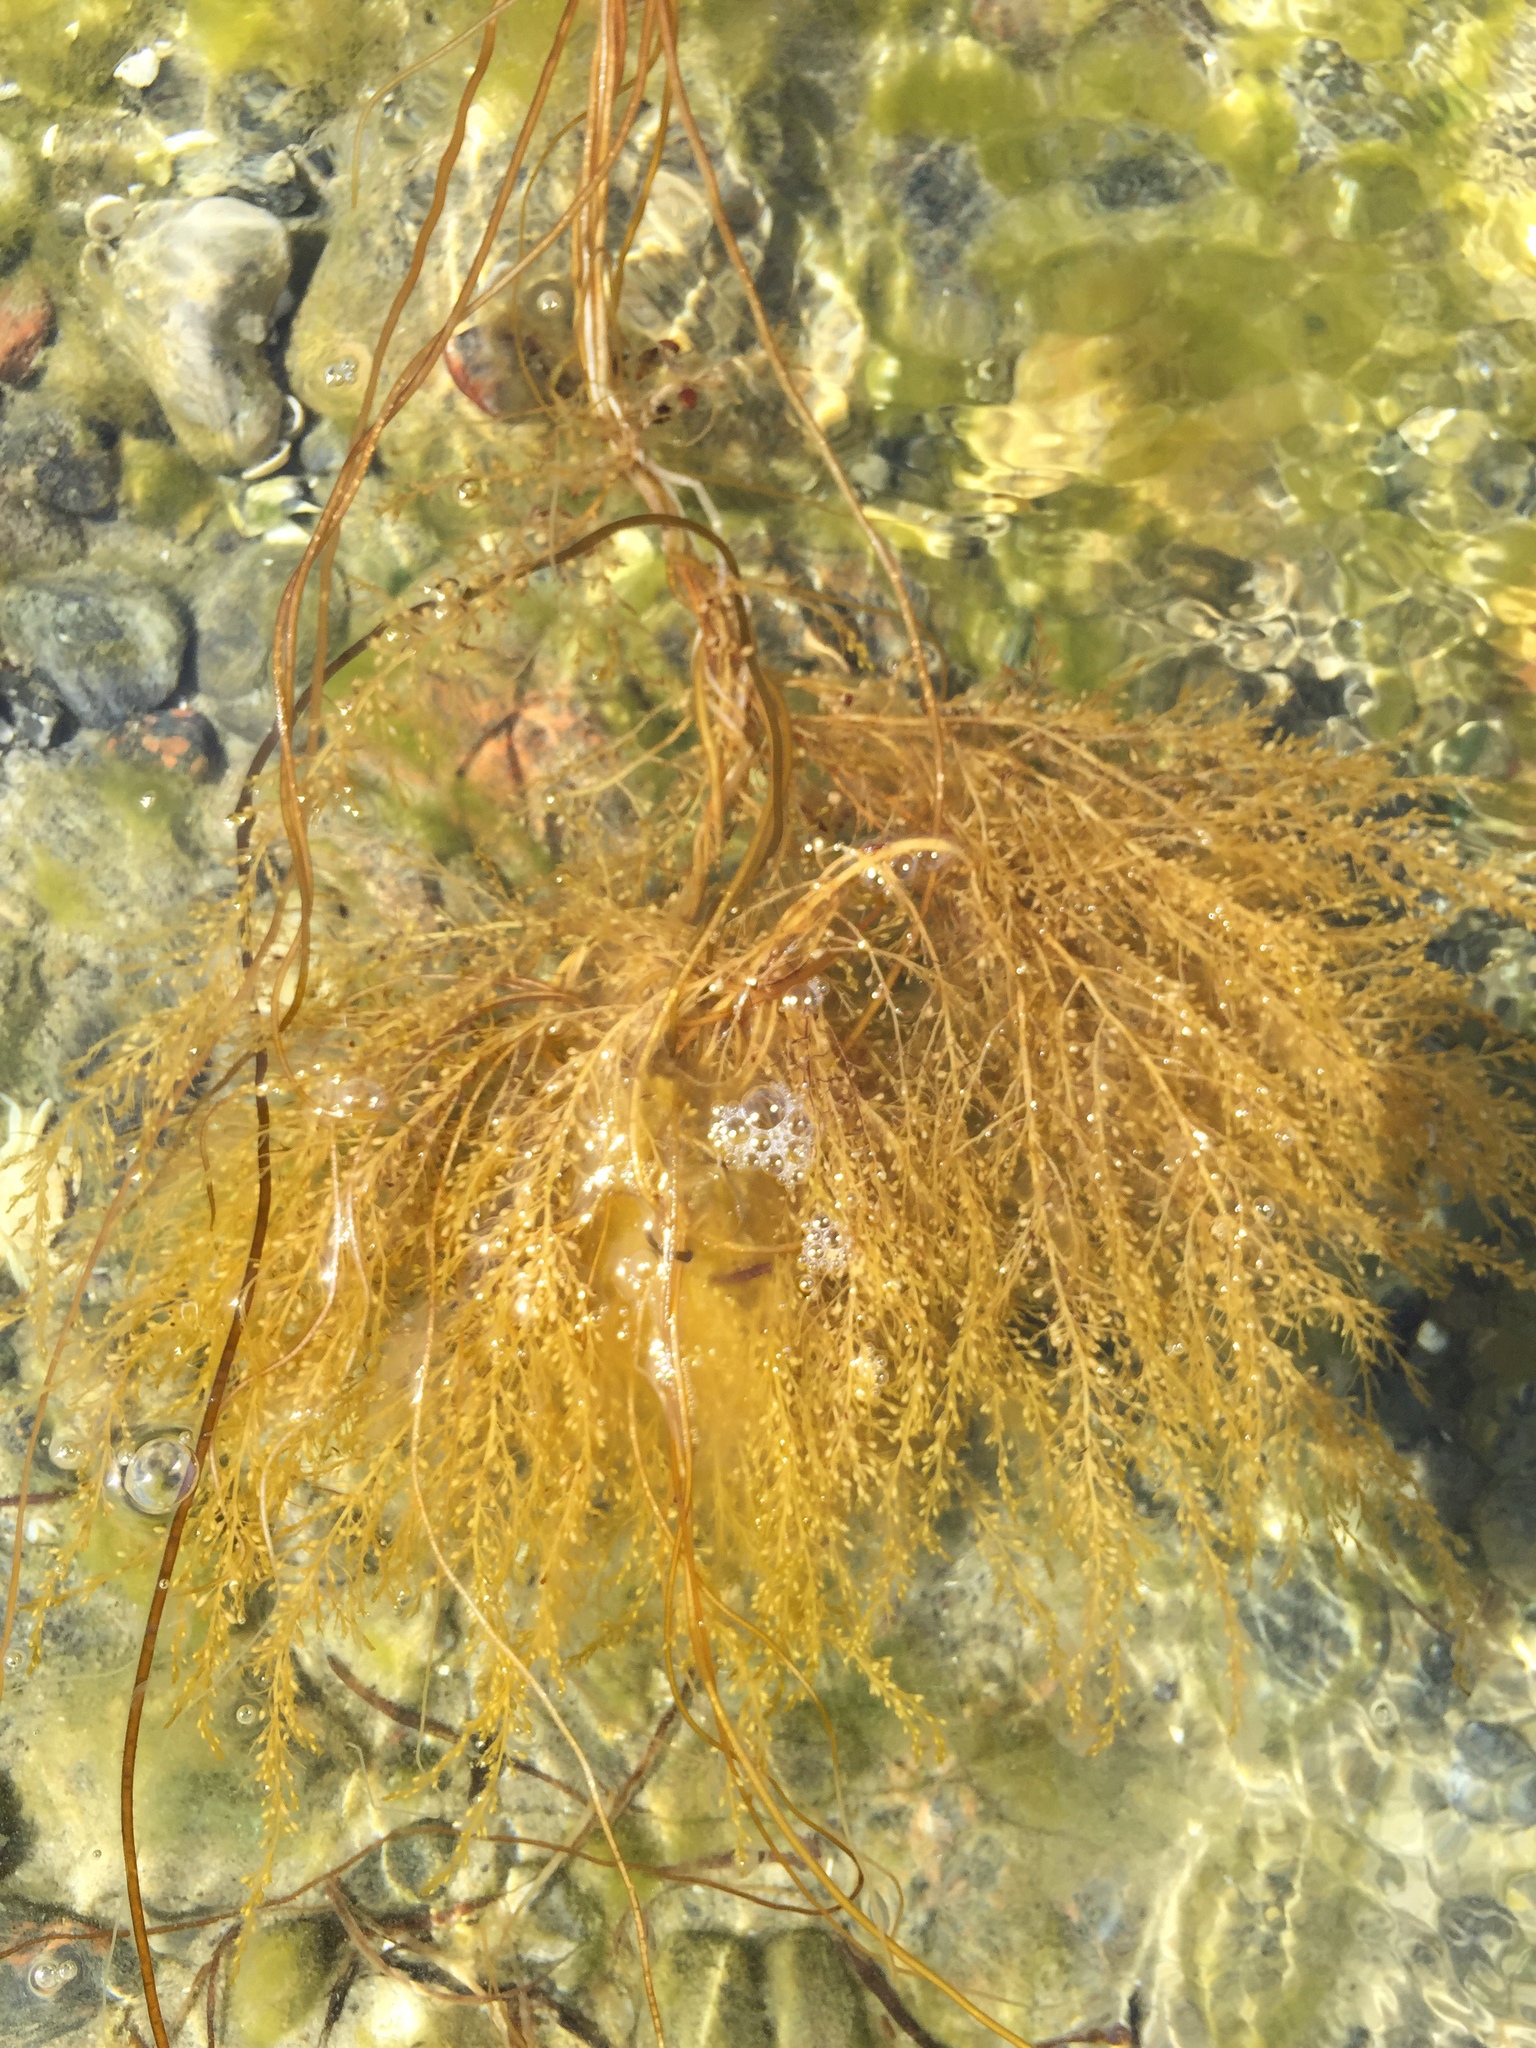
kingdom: Chromista
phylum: Ochrophyta
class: Phaeophyceae
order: Fucales
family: Sargassaceae
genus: Sargassum
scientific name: Sargassum muticum
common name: Japweed
